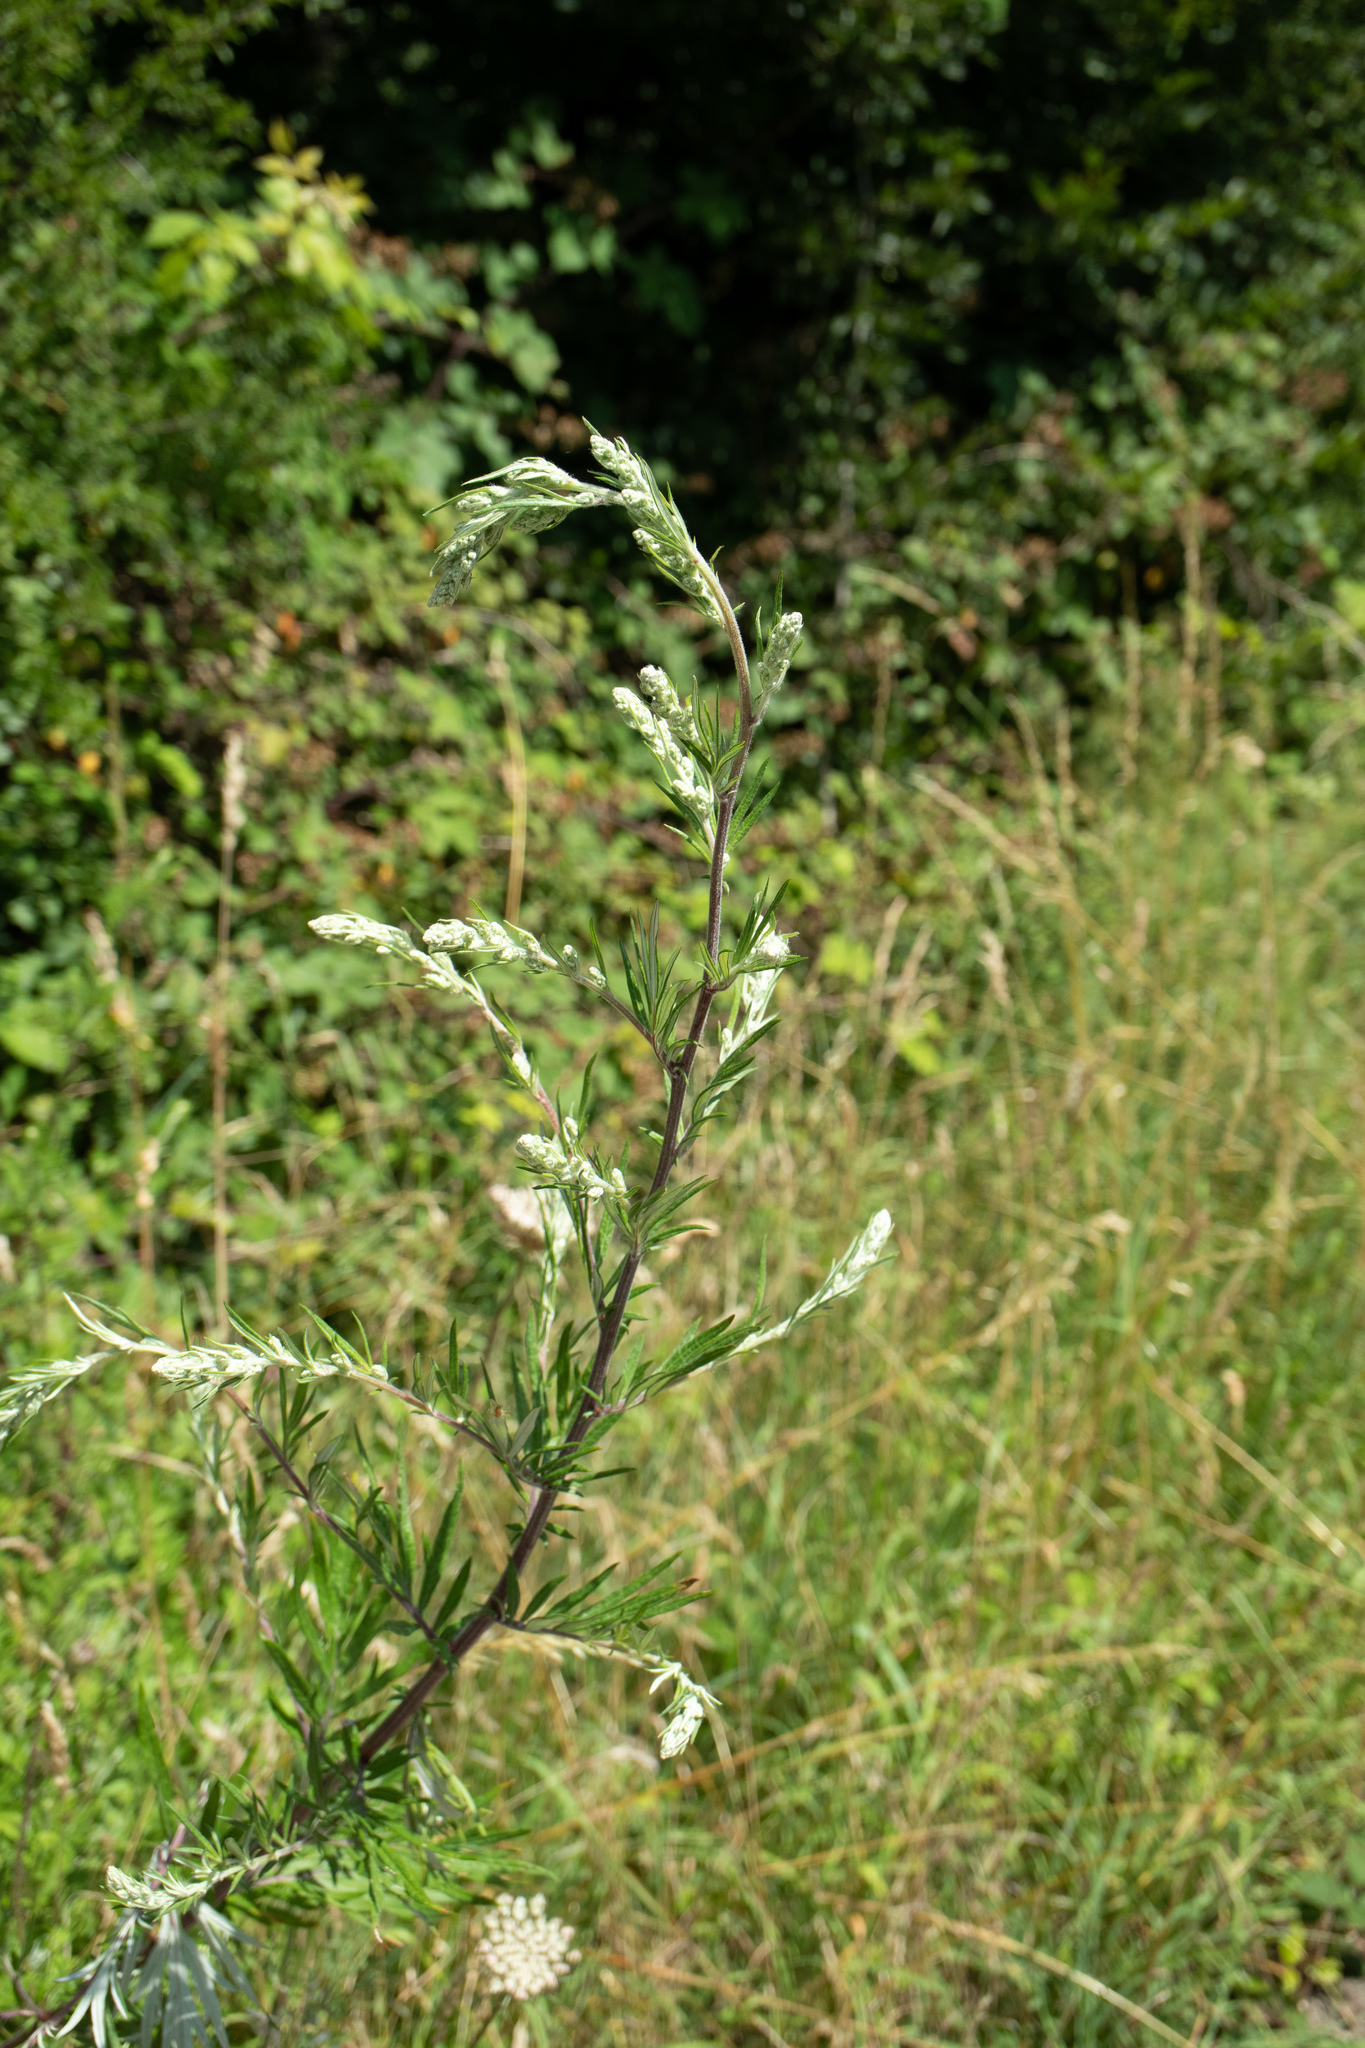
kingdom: Plantae
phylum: Tracheophyta
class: Magnoliopsida
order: Asterales
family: Asteraceae
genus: Artemisia
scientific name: Artemisia vulgaris
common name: Mugwort
